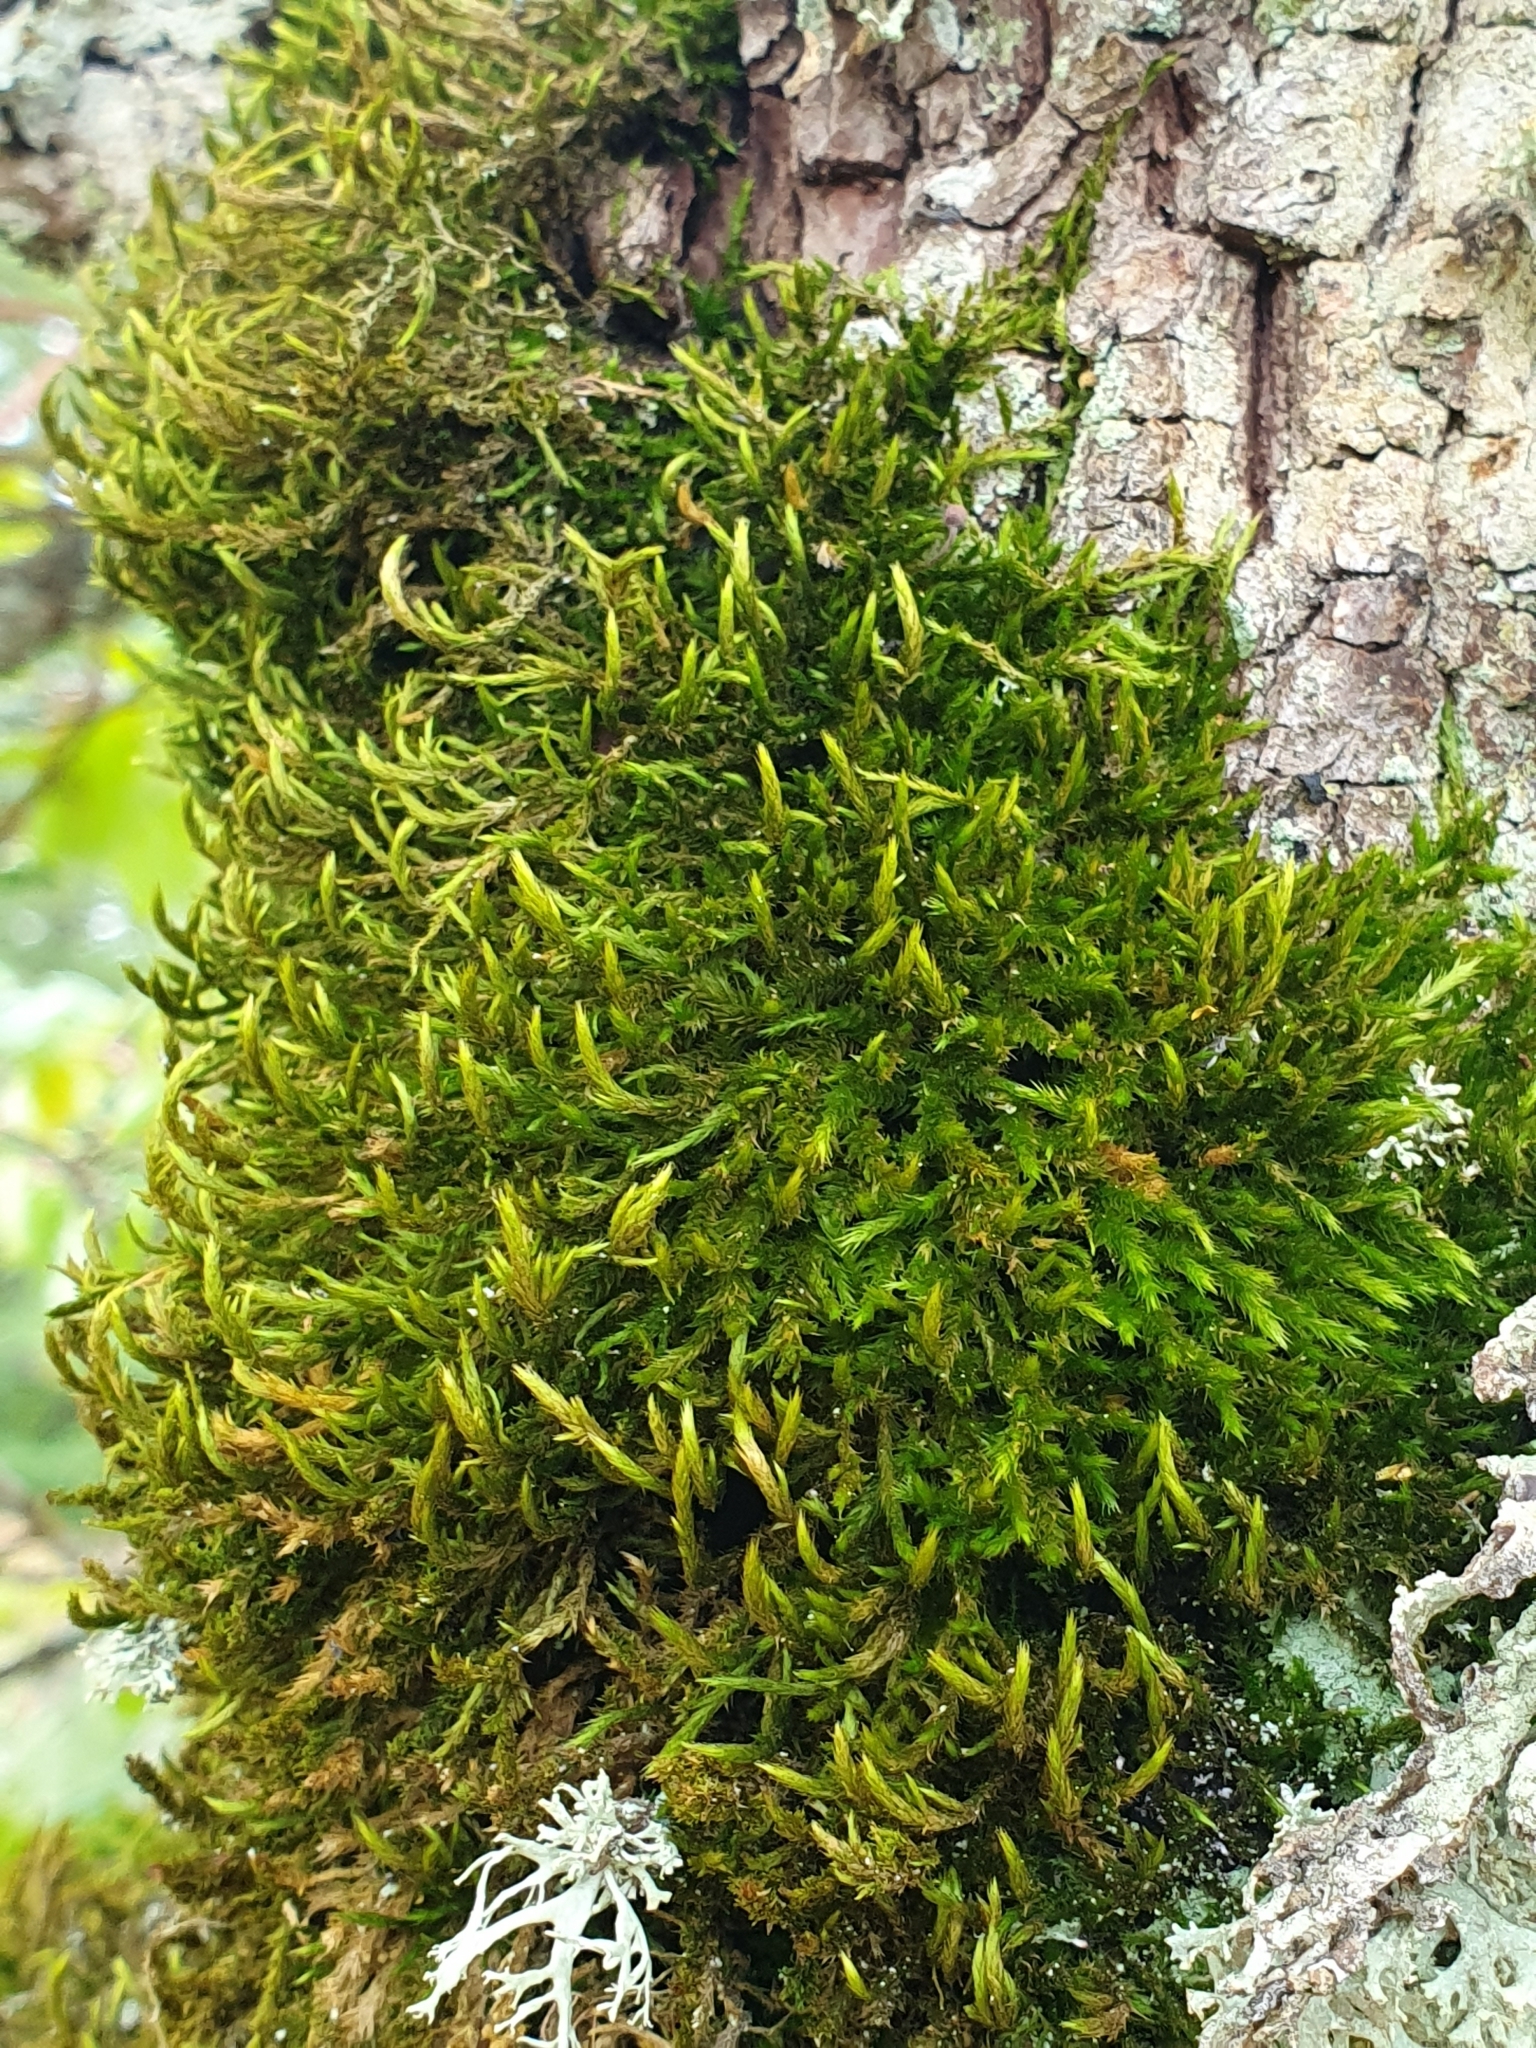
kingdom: Plantae
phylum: Bryophyta
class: Bryopsida
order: Hypnales
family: Leucodontaceae
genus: Leucodon
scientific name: Leucodon sciuroides
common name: Squirrel-tail moss
